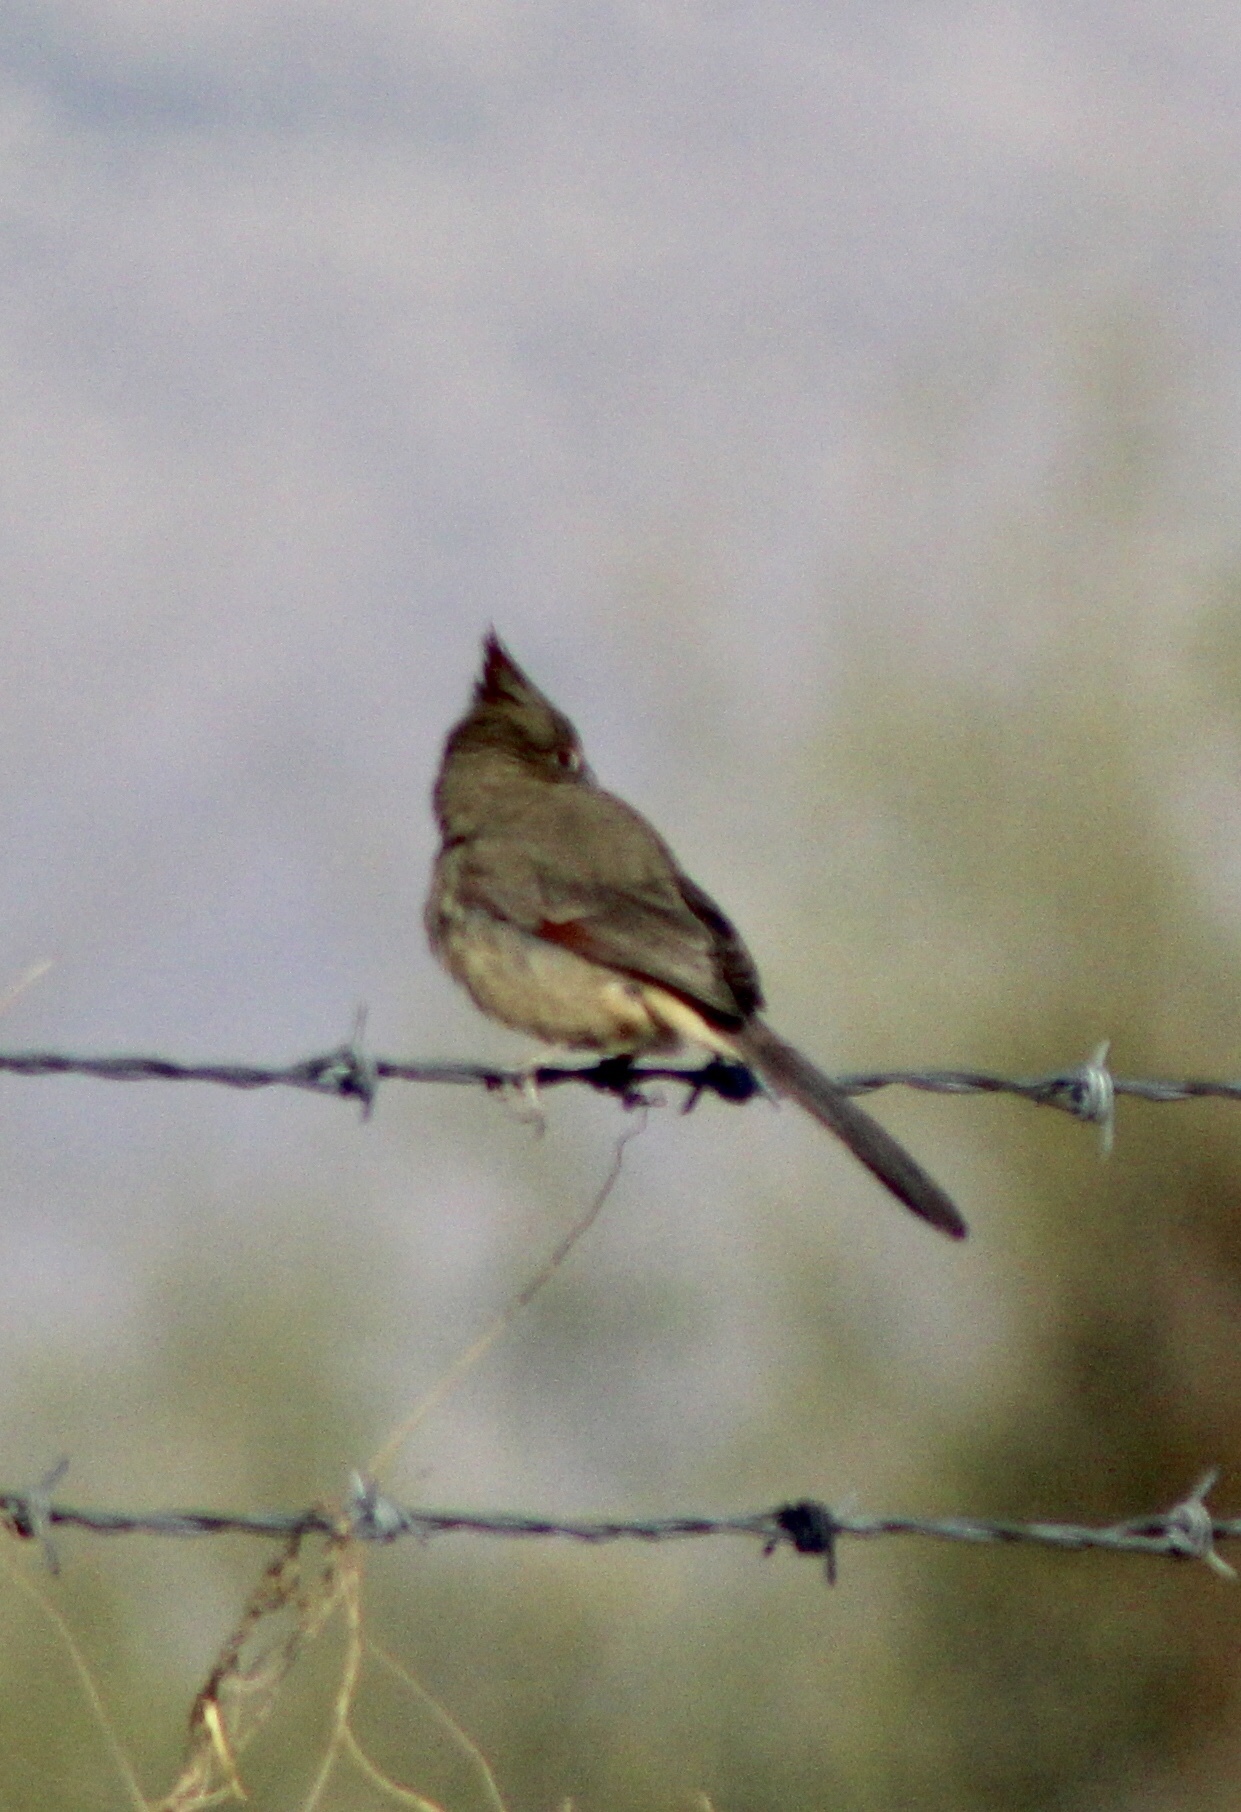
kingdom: Animalia
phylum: Chordata
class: Aves
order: Passeriformes
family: Cardinalidae
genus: Cardinalis
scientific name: Cardinalis sinuatus
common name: Pyrrhuloxia
